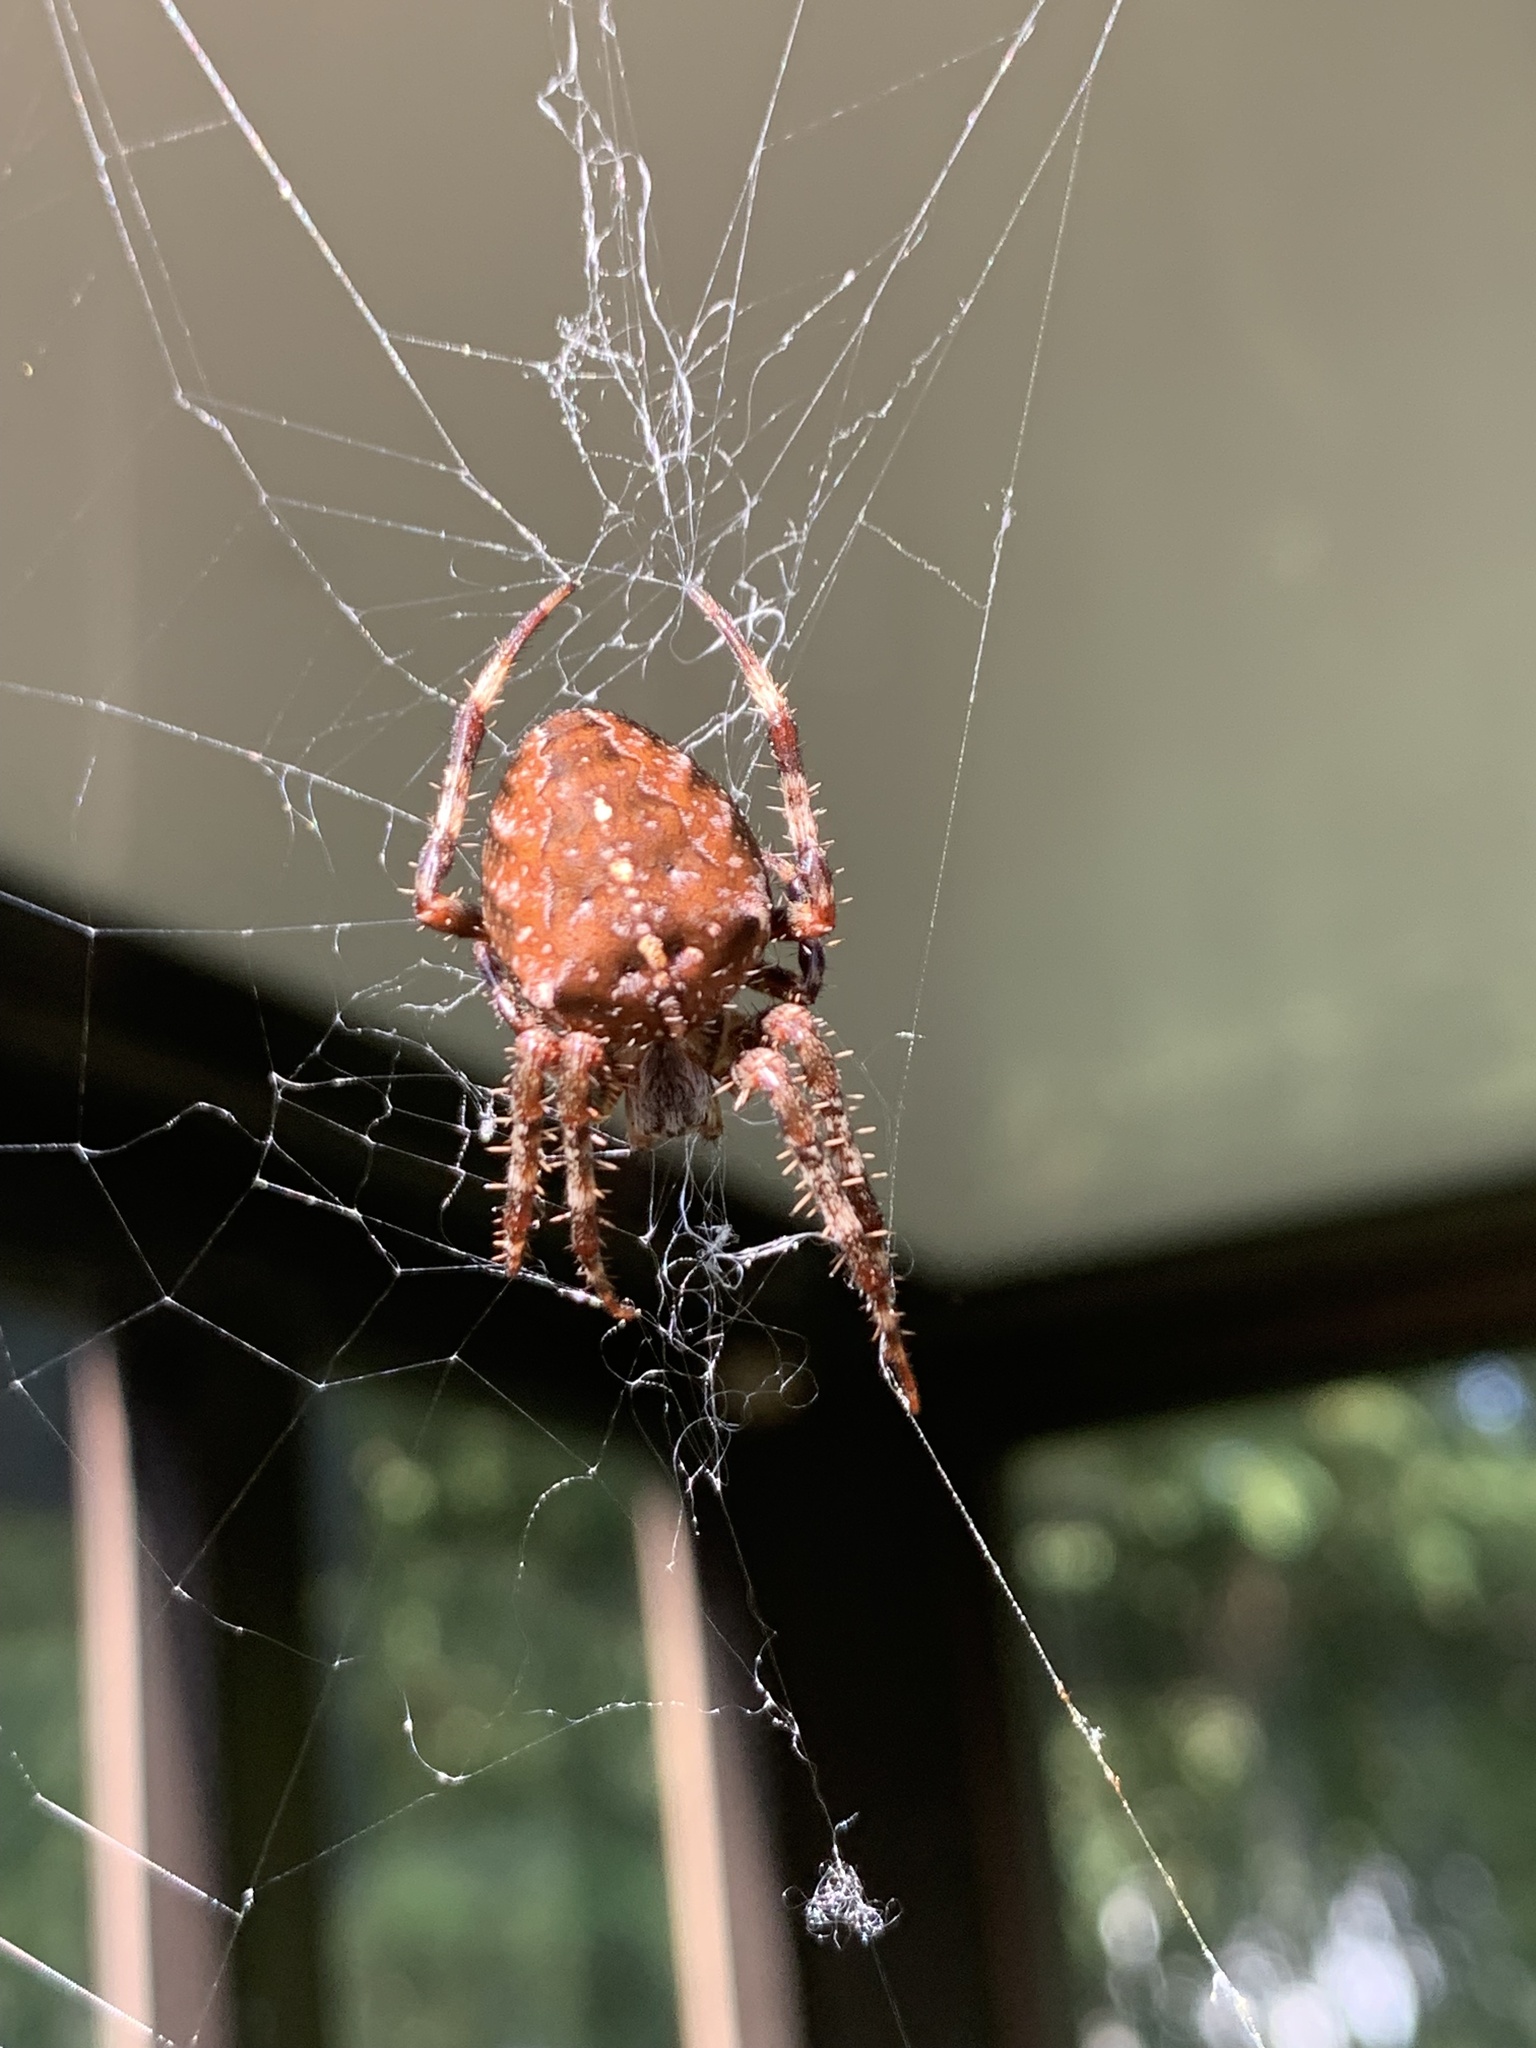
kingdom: Animalia
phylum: Arthropoda
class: Arachnida
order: Araneae
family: Araneidae
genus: Araneus
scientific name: Araneus diadematus
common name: Cross orbweaver
